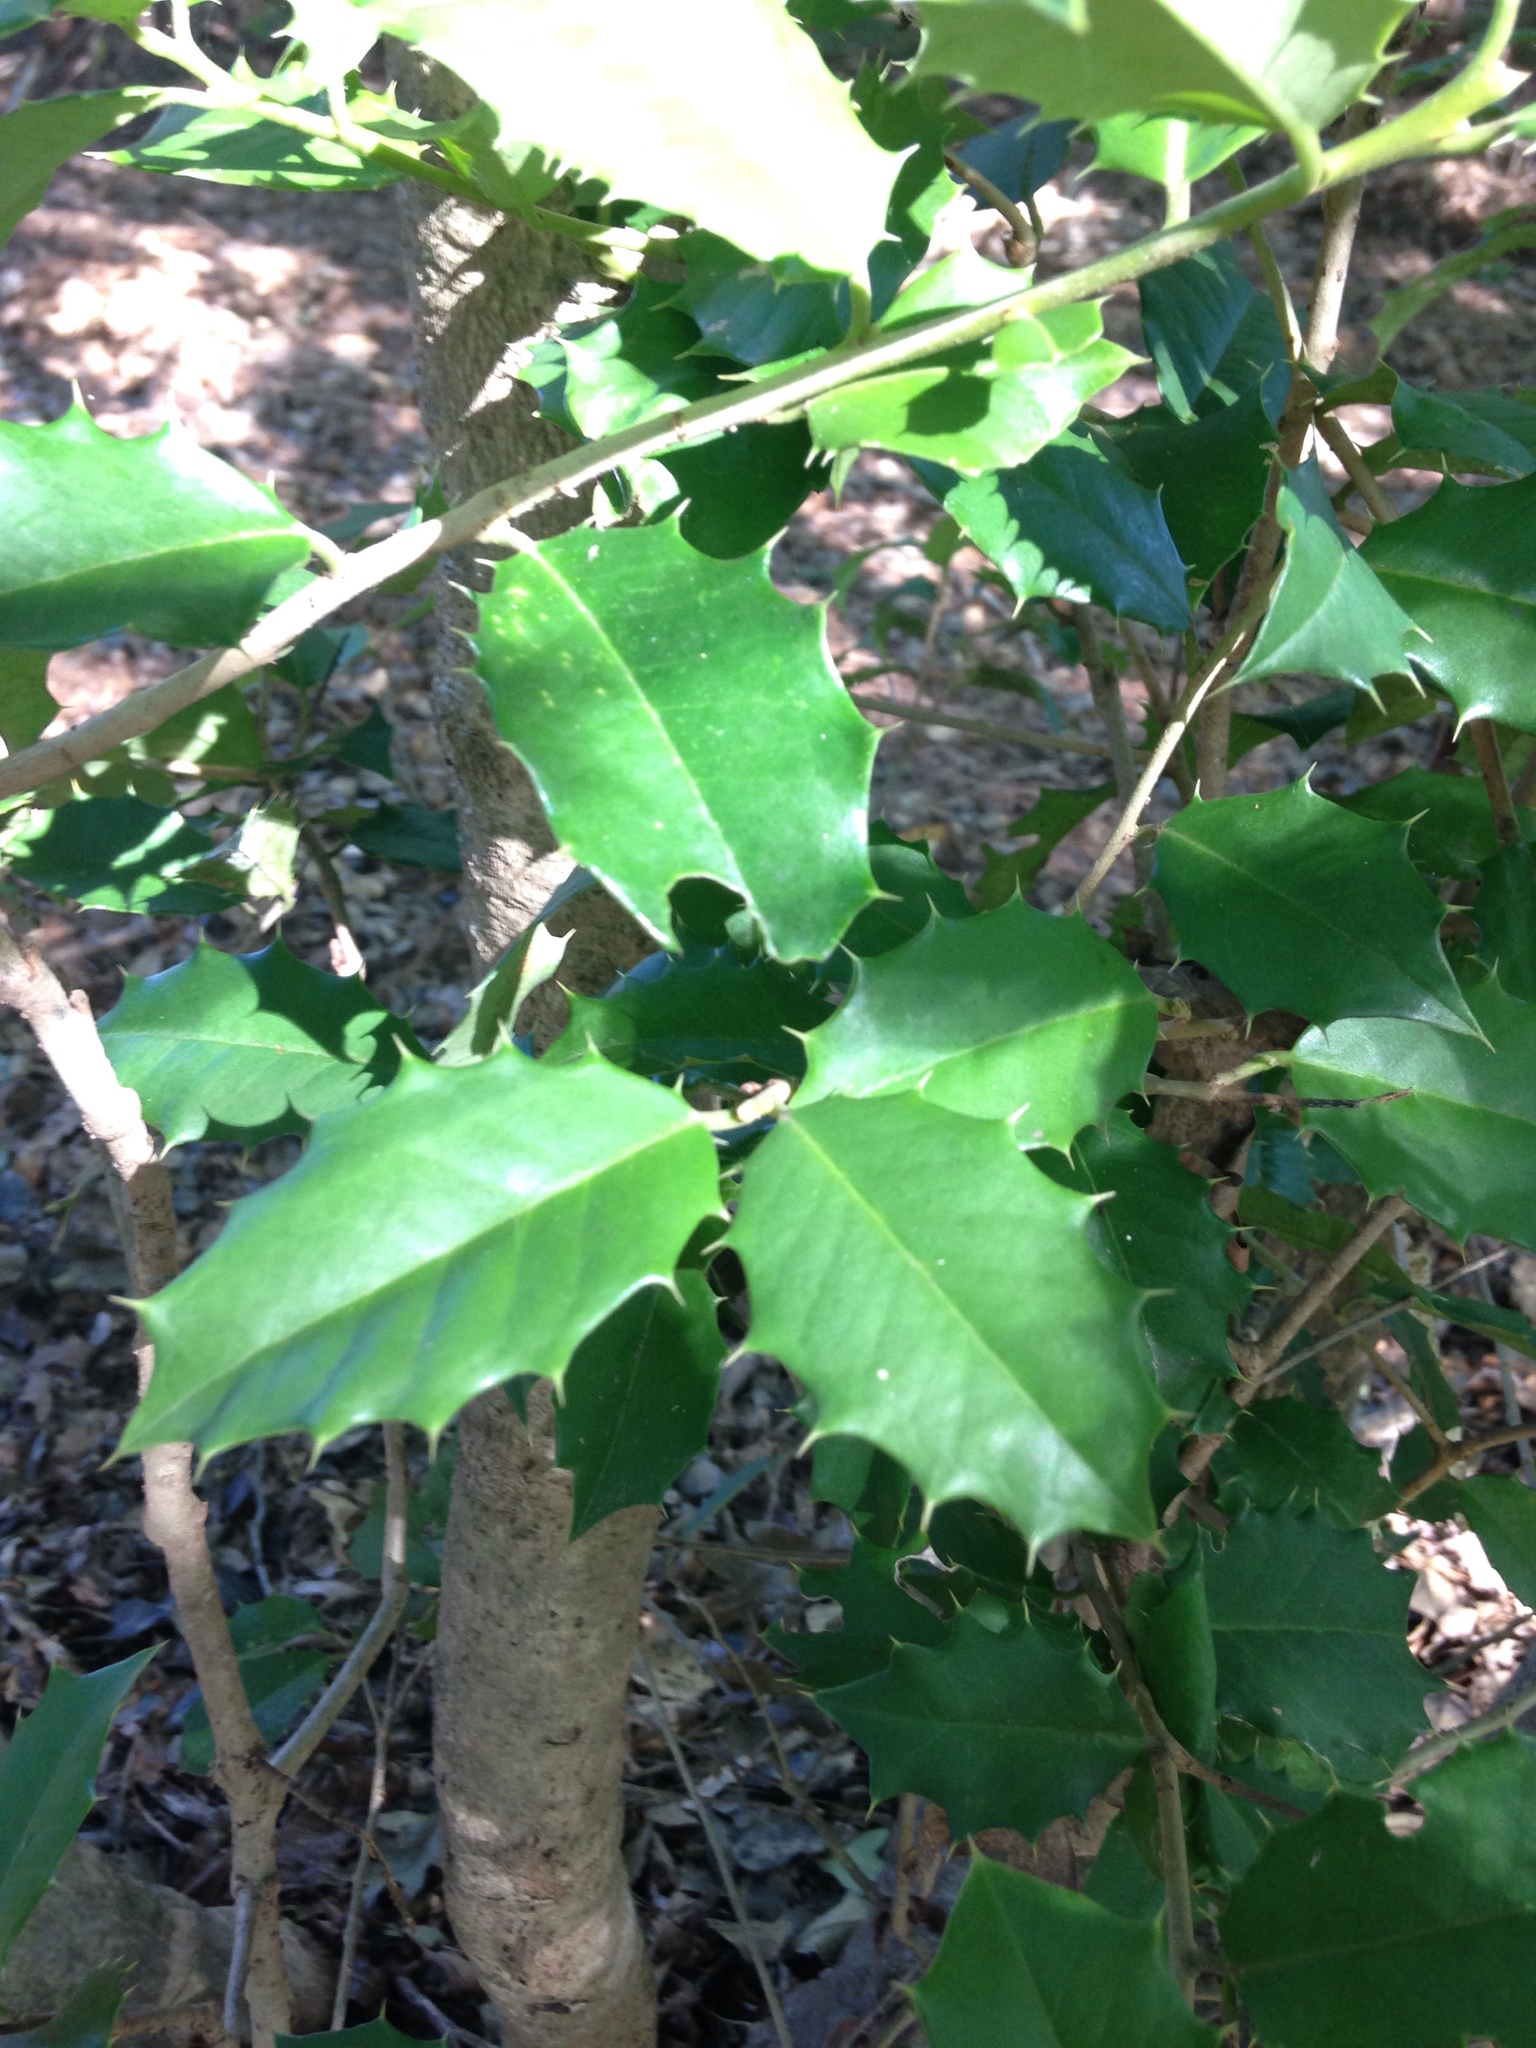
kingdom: Plantae
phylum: Tracheophyta
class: Magnoliopsida
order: Aquifoliales
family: Aquifoliaceae
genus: Ilex
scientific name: Ilex opaca
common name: American holly
